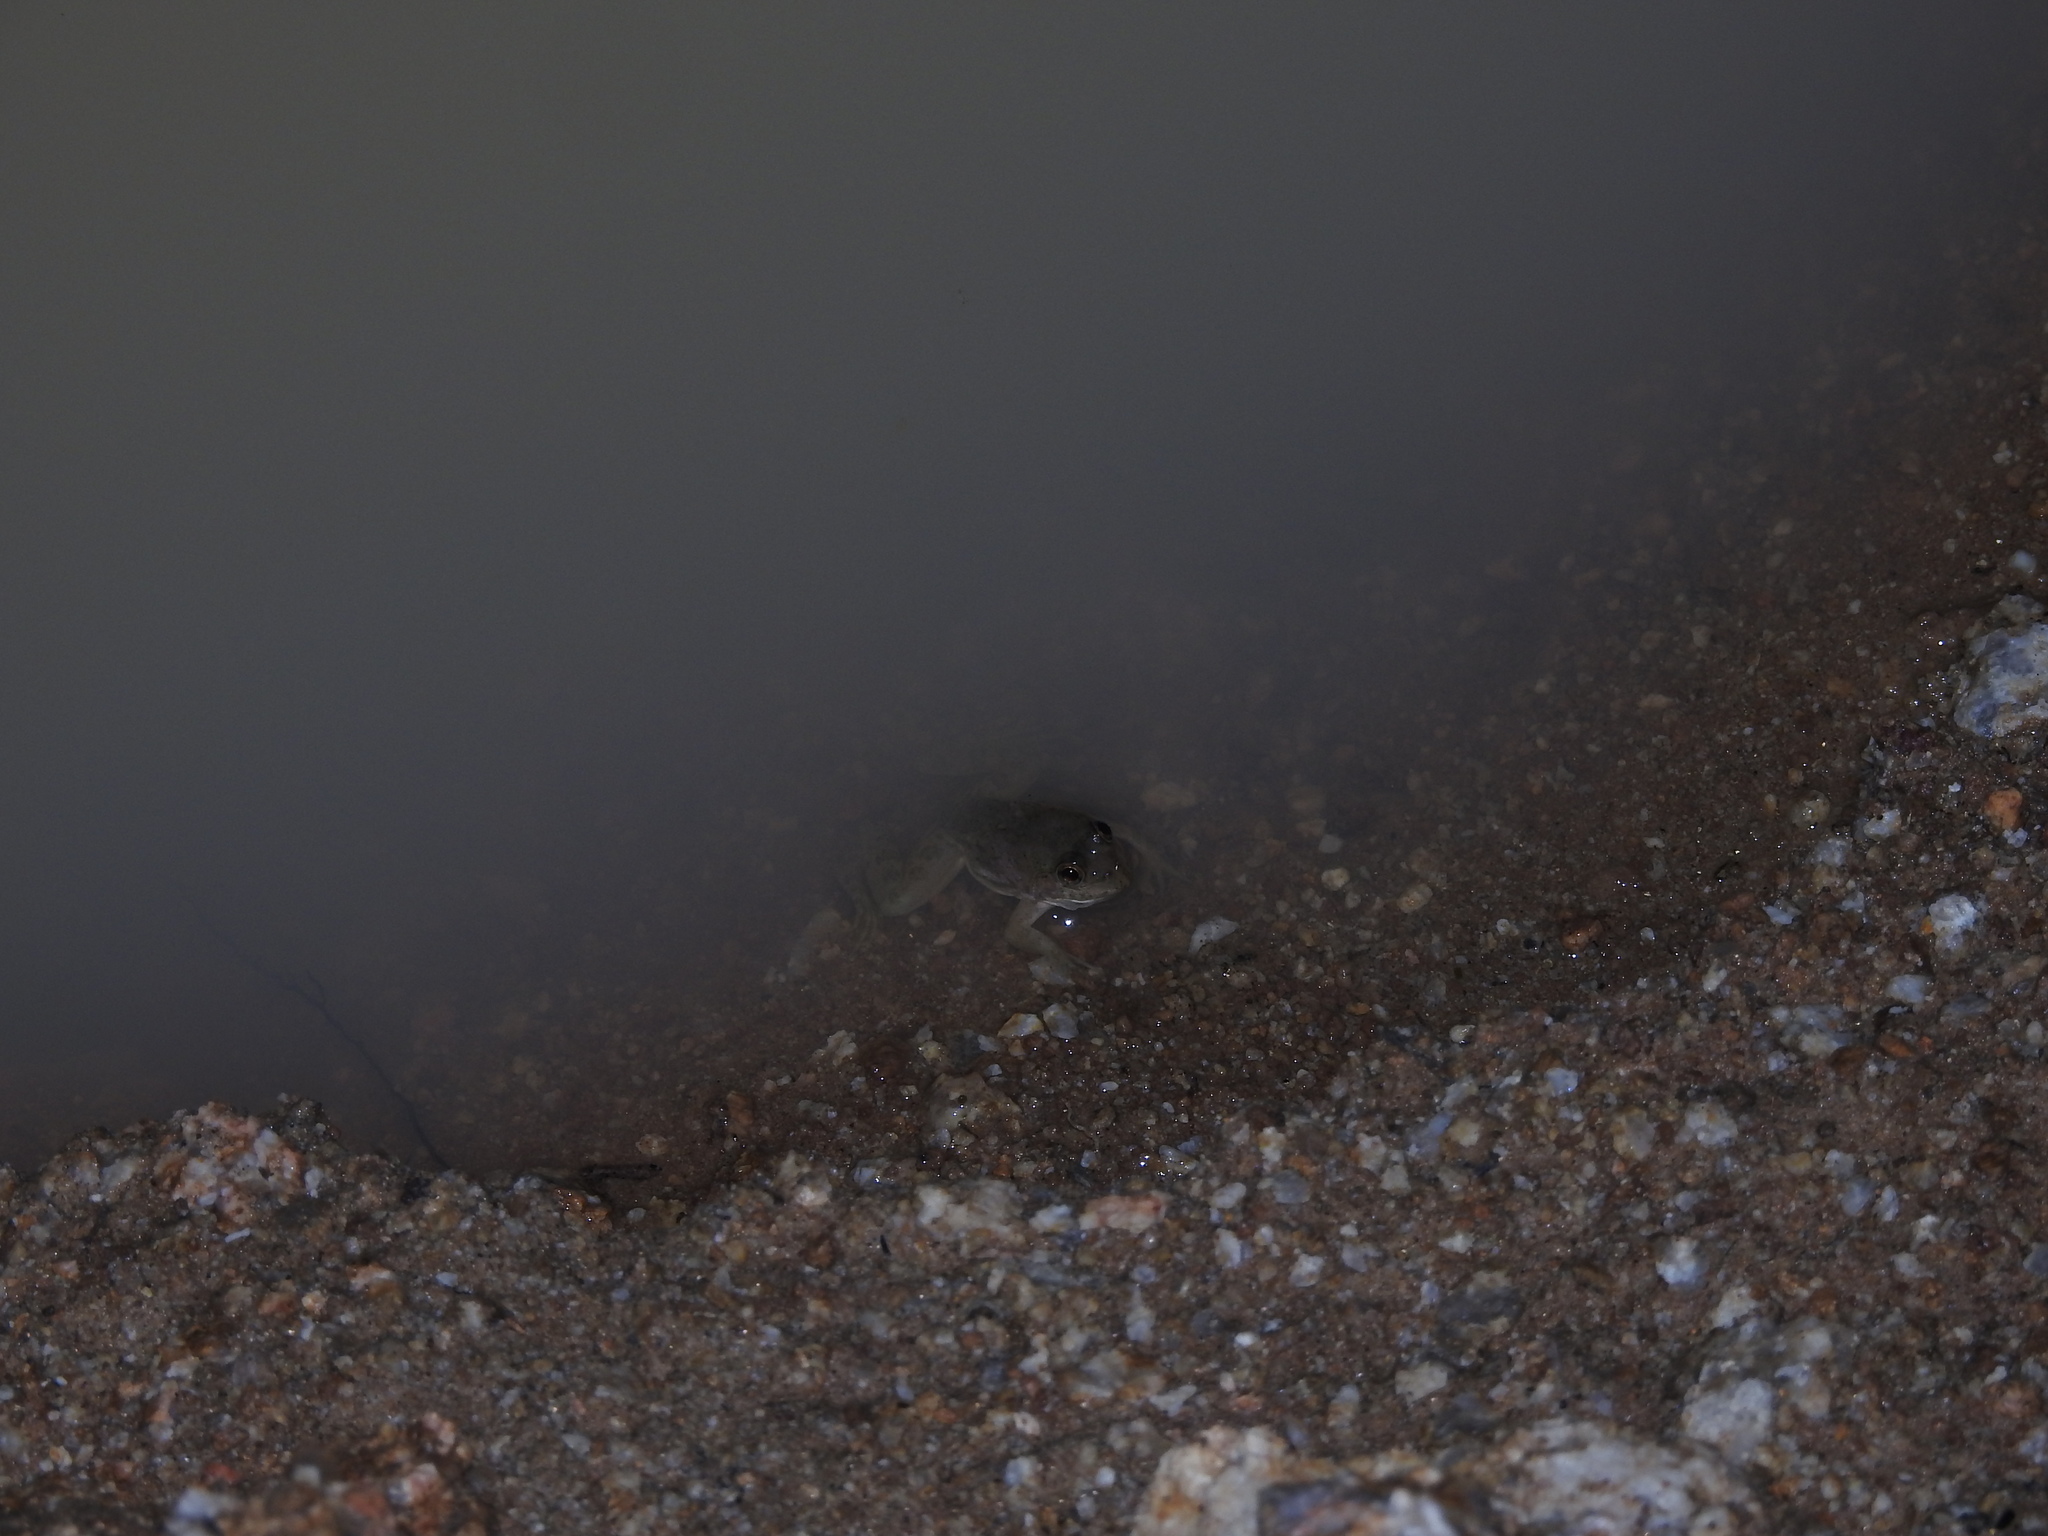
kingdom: Animalia
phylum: Chordata
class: Amphibia
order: Anura
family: Dicroglossidae
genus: Euphlyctis
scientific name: Euphlyctis cyanophlyctis
